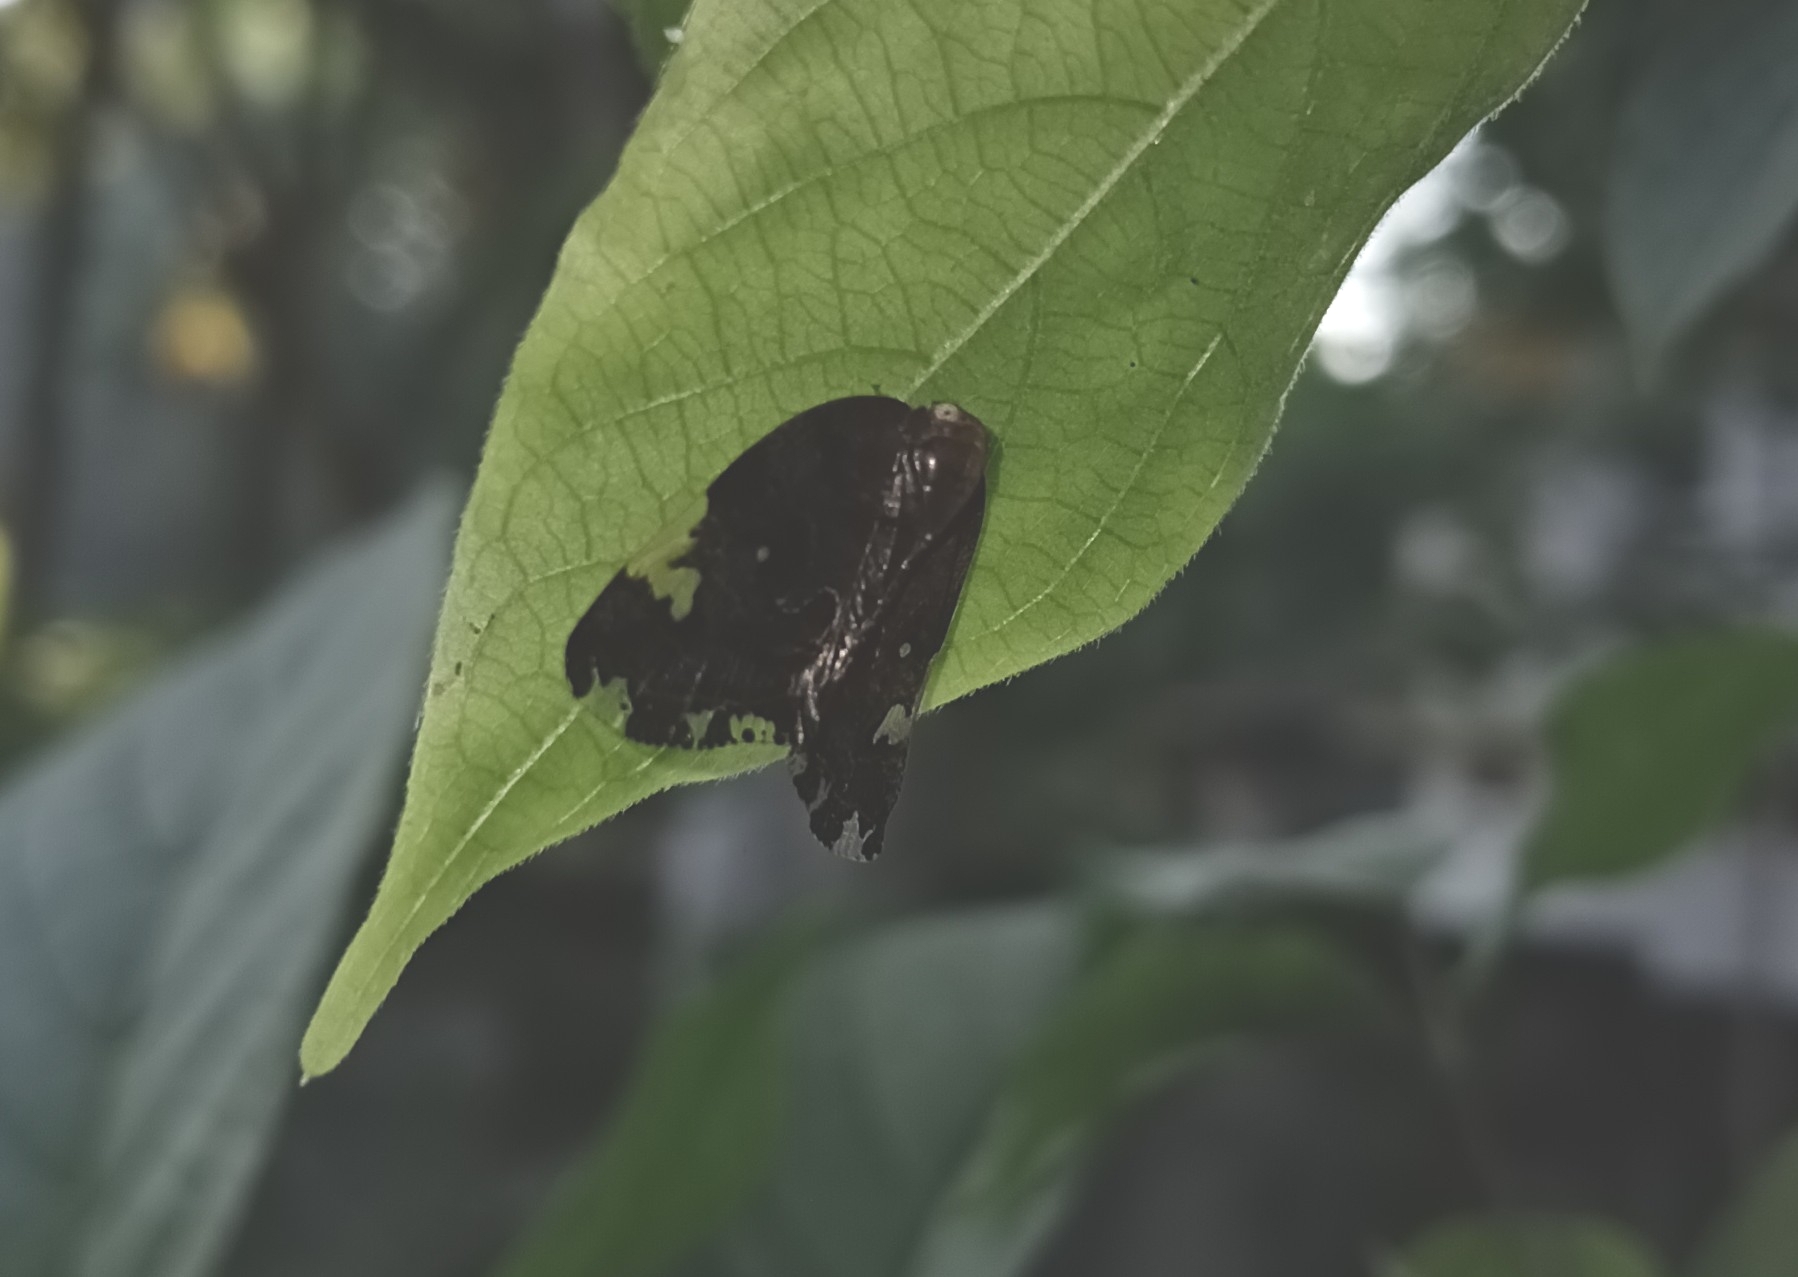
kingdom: Animalia
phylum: Arthropoda
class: Insecta
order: Hemiptera
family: Ricaniidae
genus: Ricania
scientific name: Ricania speculum
